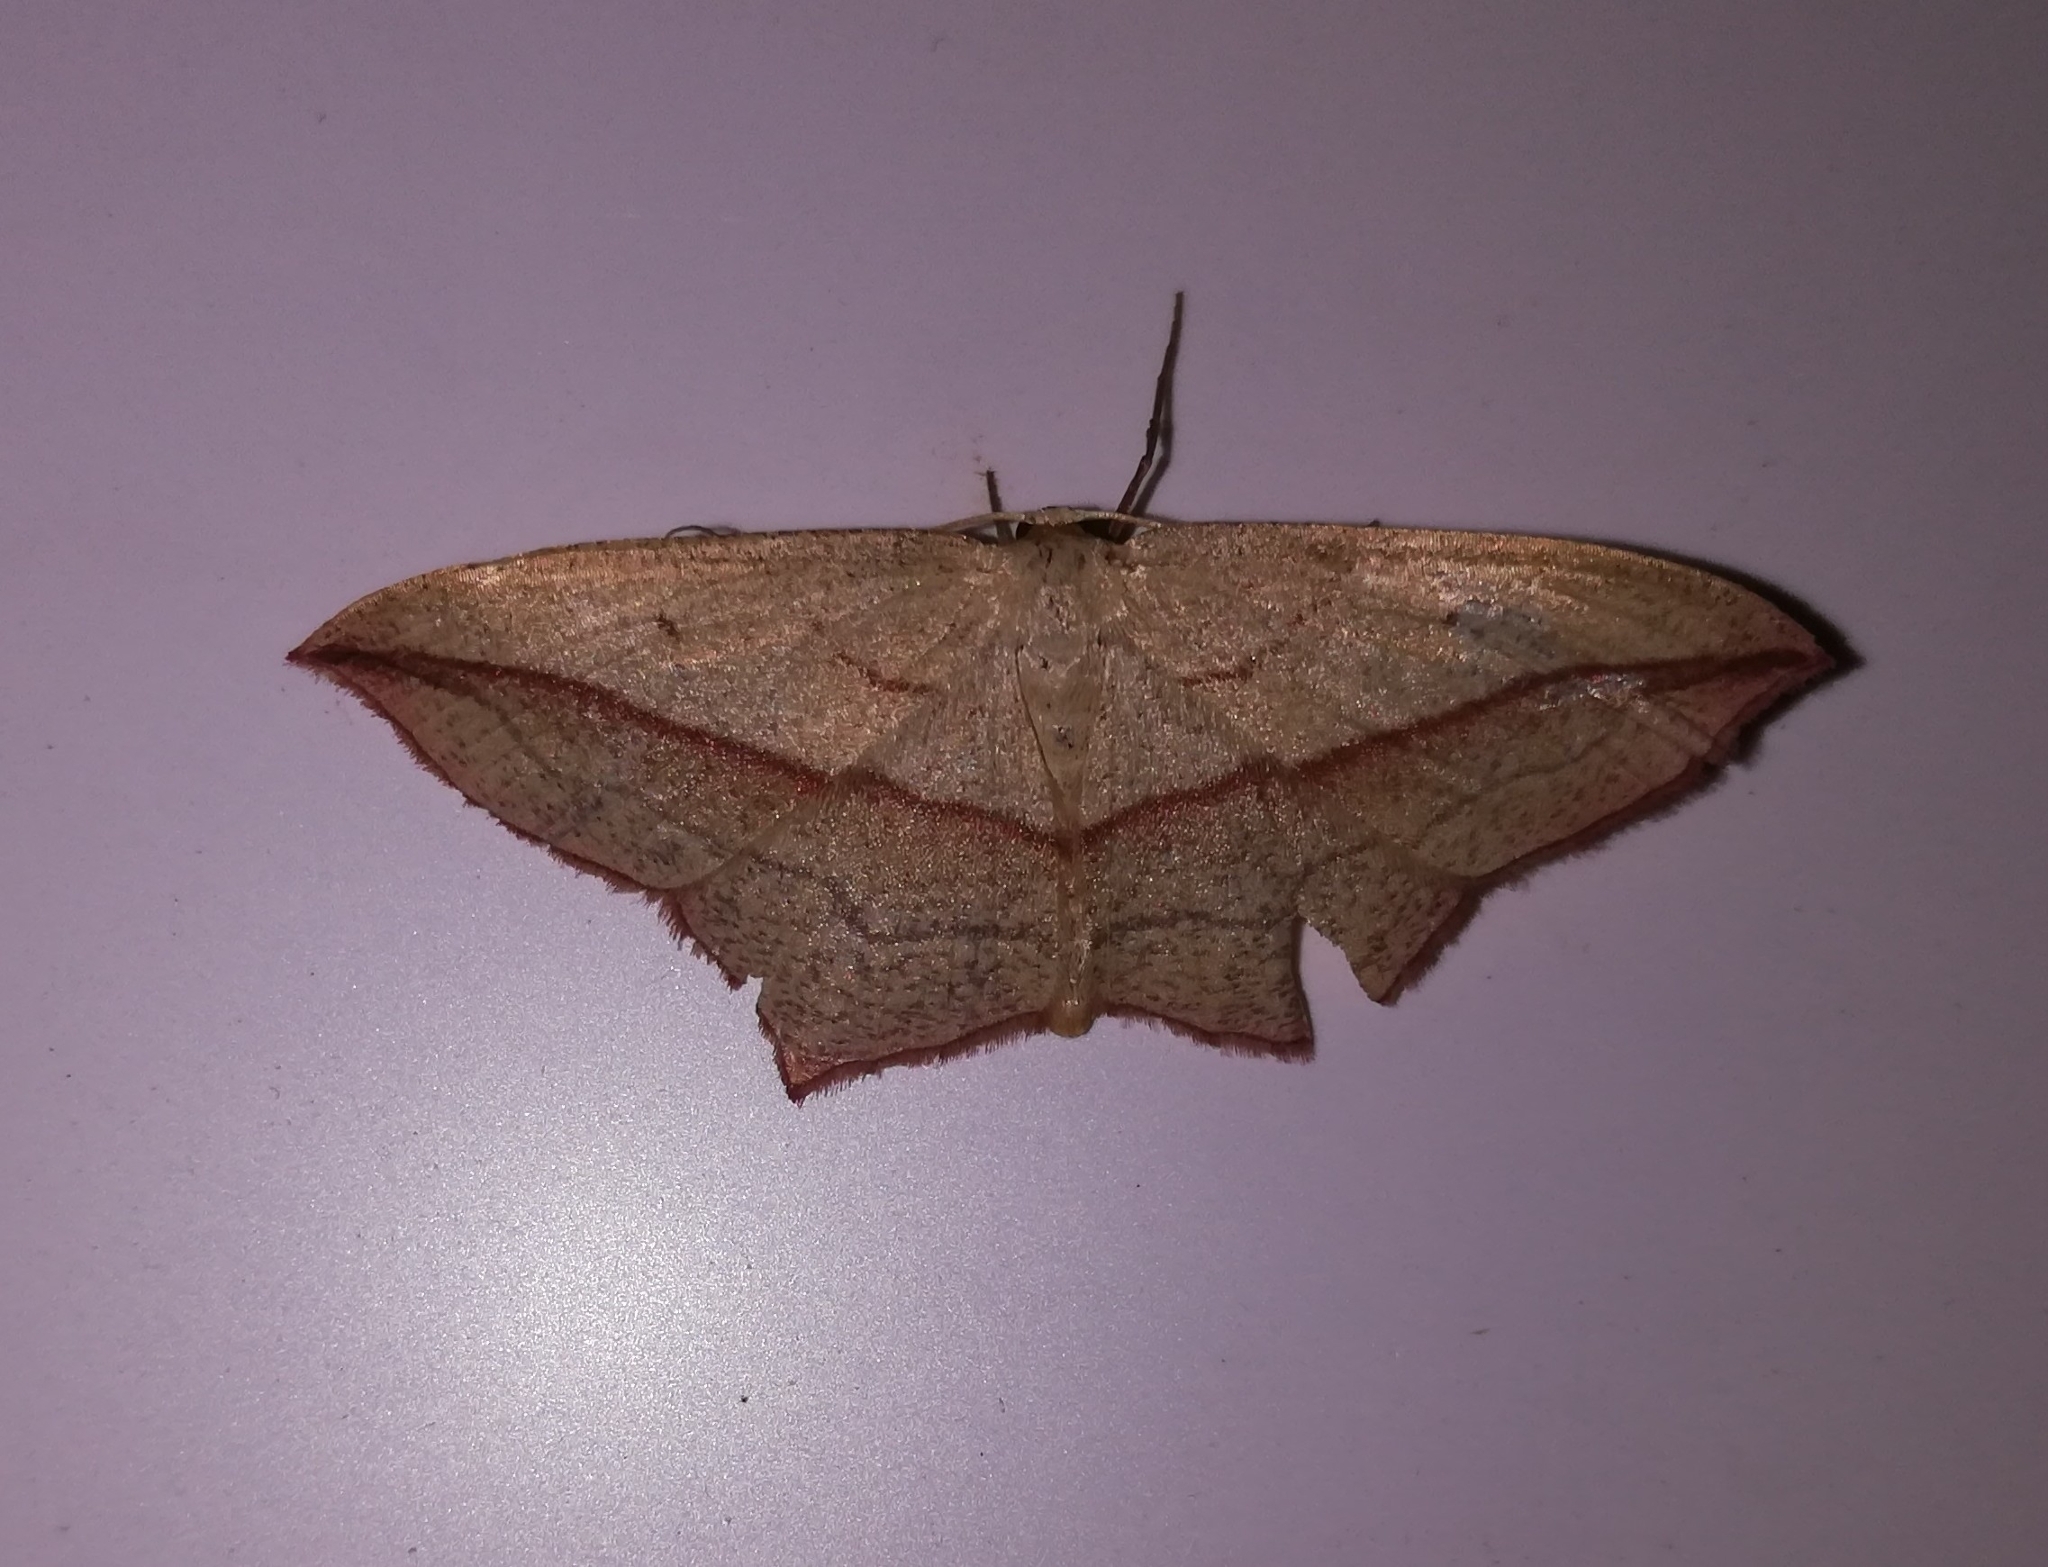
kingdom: Animalia
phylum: Arthropoda
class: Insecta
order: Lepidoptera
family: Geometridae
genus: Timandra
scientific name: Timandra comae
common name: Blood-vein
